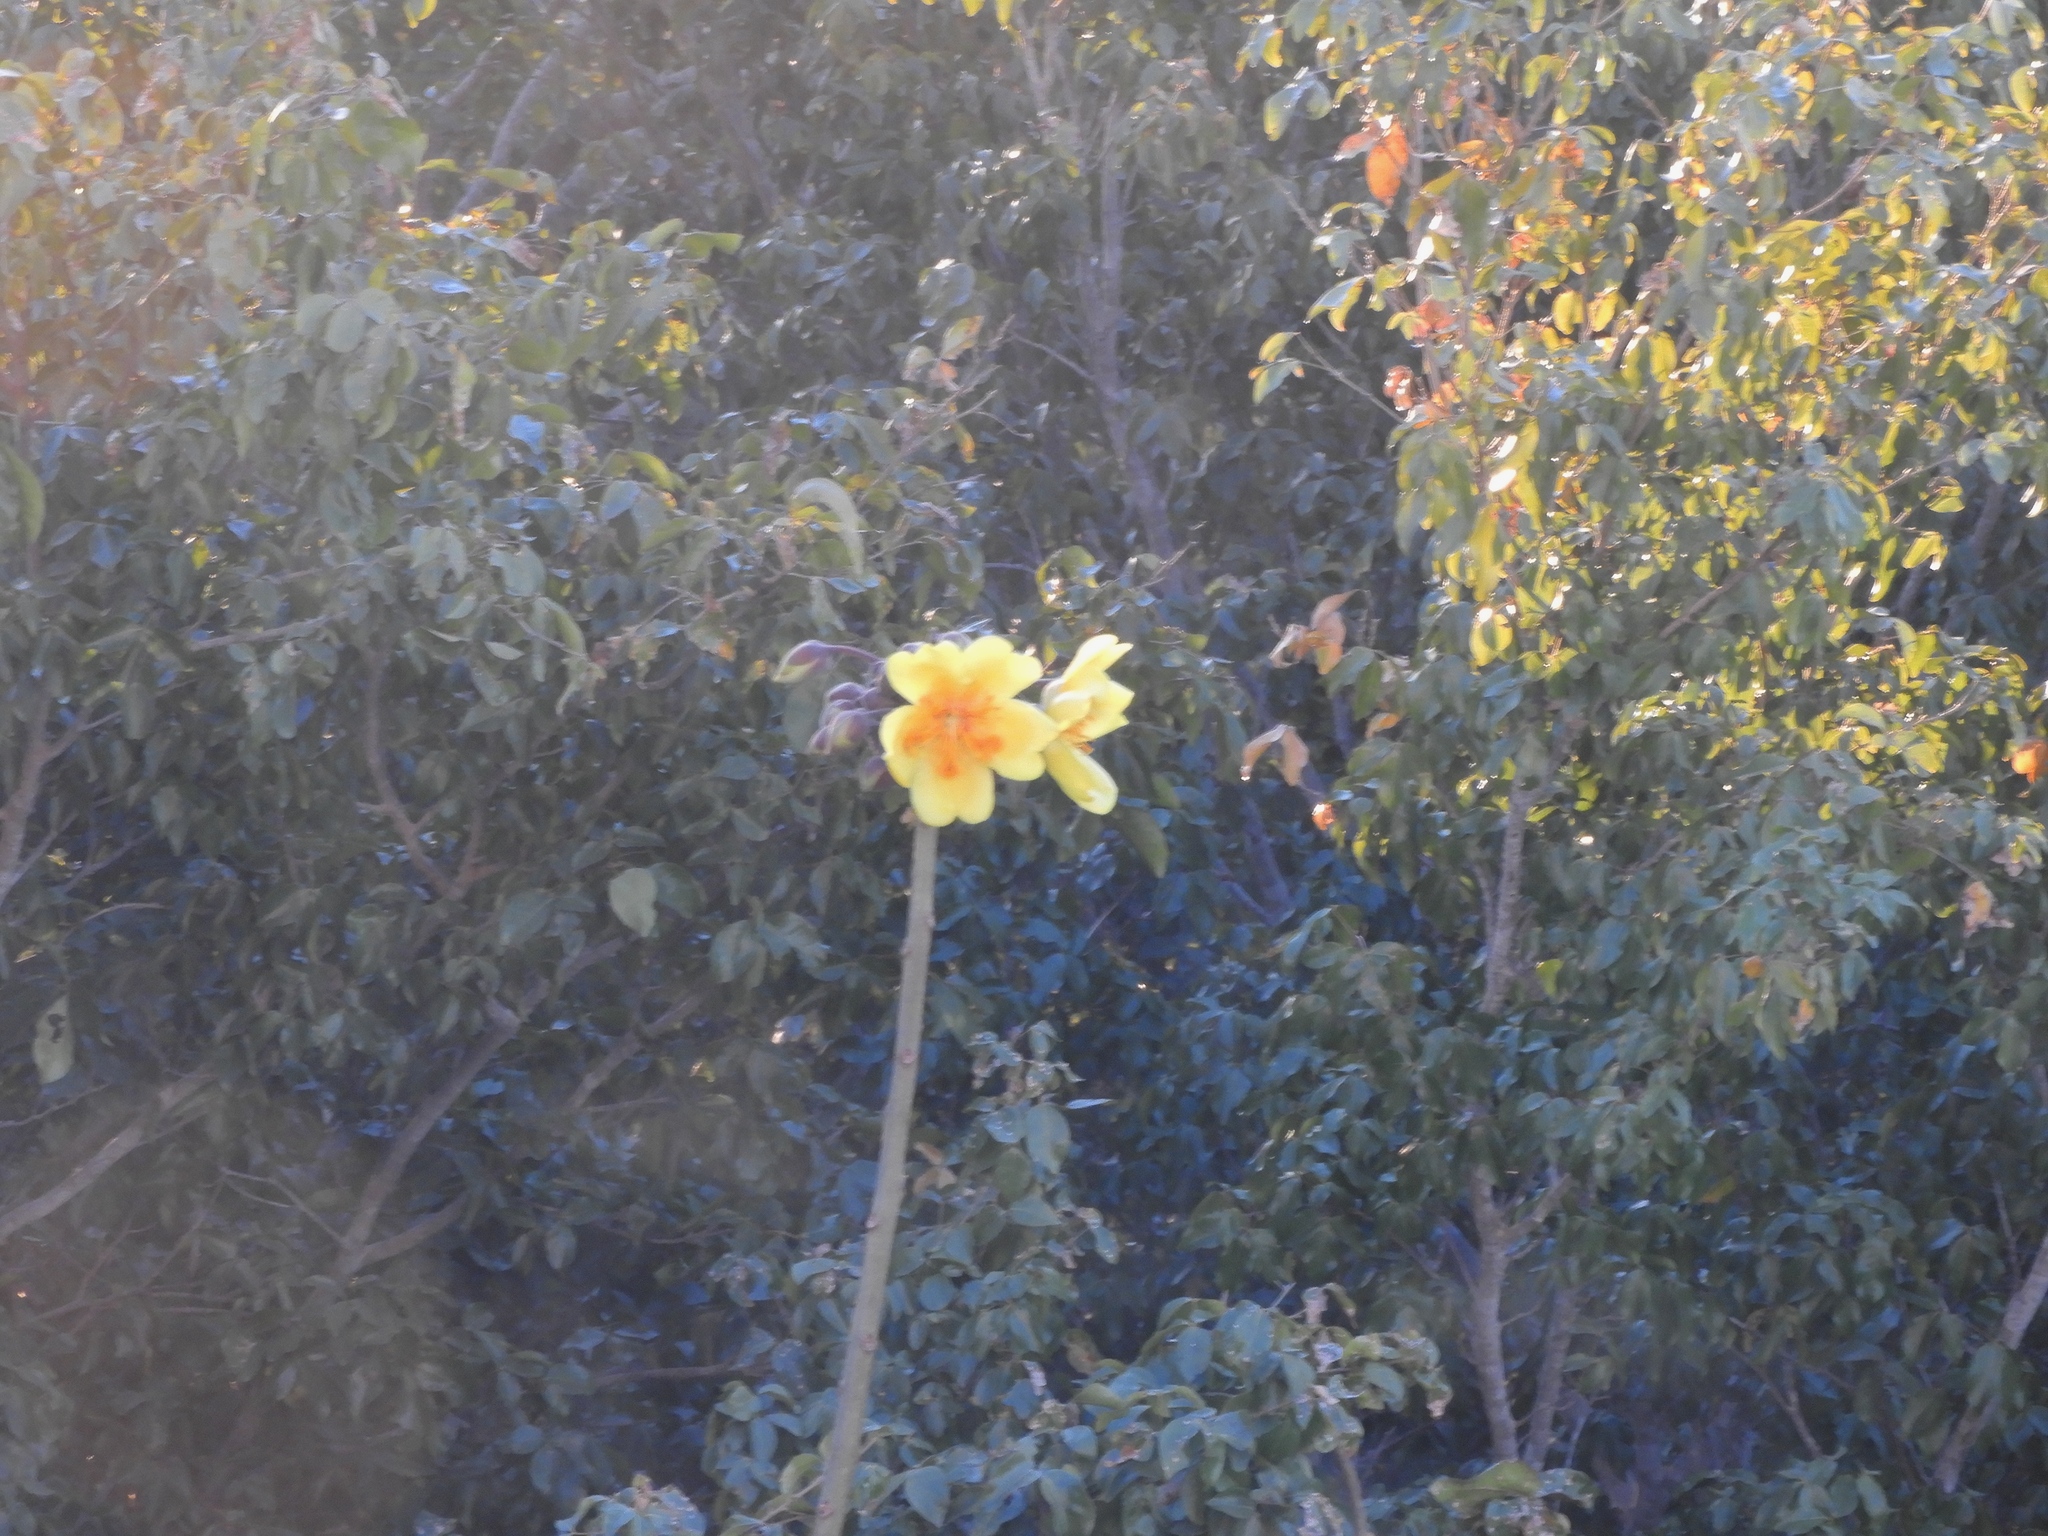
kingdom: Plantae
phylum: Tracheophyta
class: Magnoliopsida
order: Malvales
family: Cochlospermaceae
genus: Cochlospermum
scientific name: Cochlospermum vitifolium
